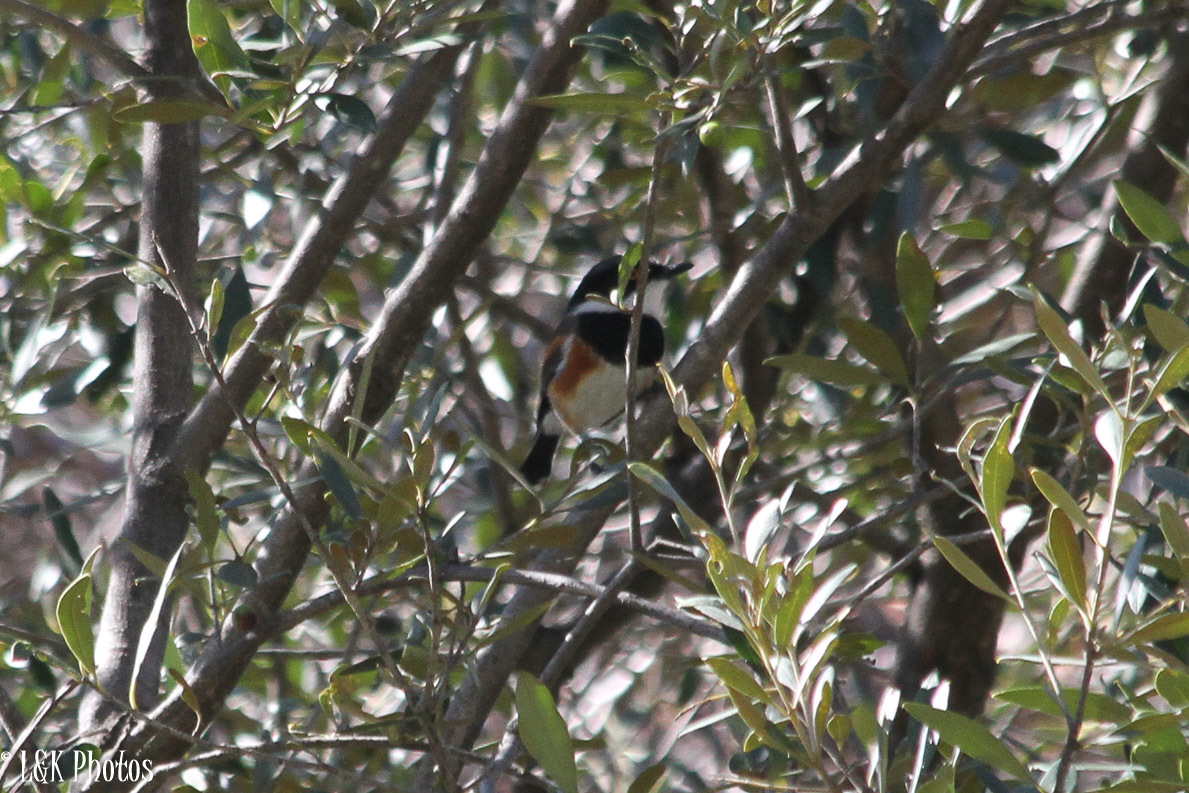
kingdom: Animalia
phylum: Chordata
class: Aves
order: Passeriformes
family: Platysteiridae
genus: Batis
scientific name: Batis capensis
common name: Cape batis
